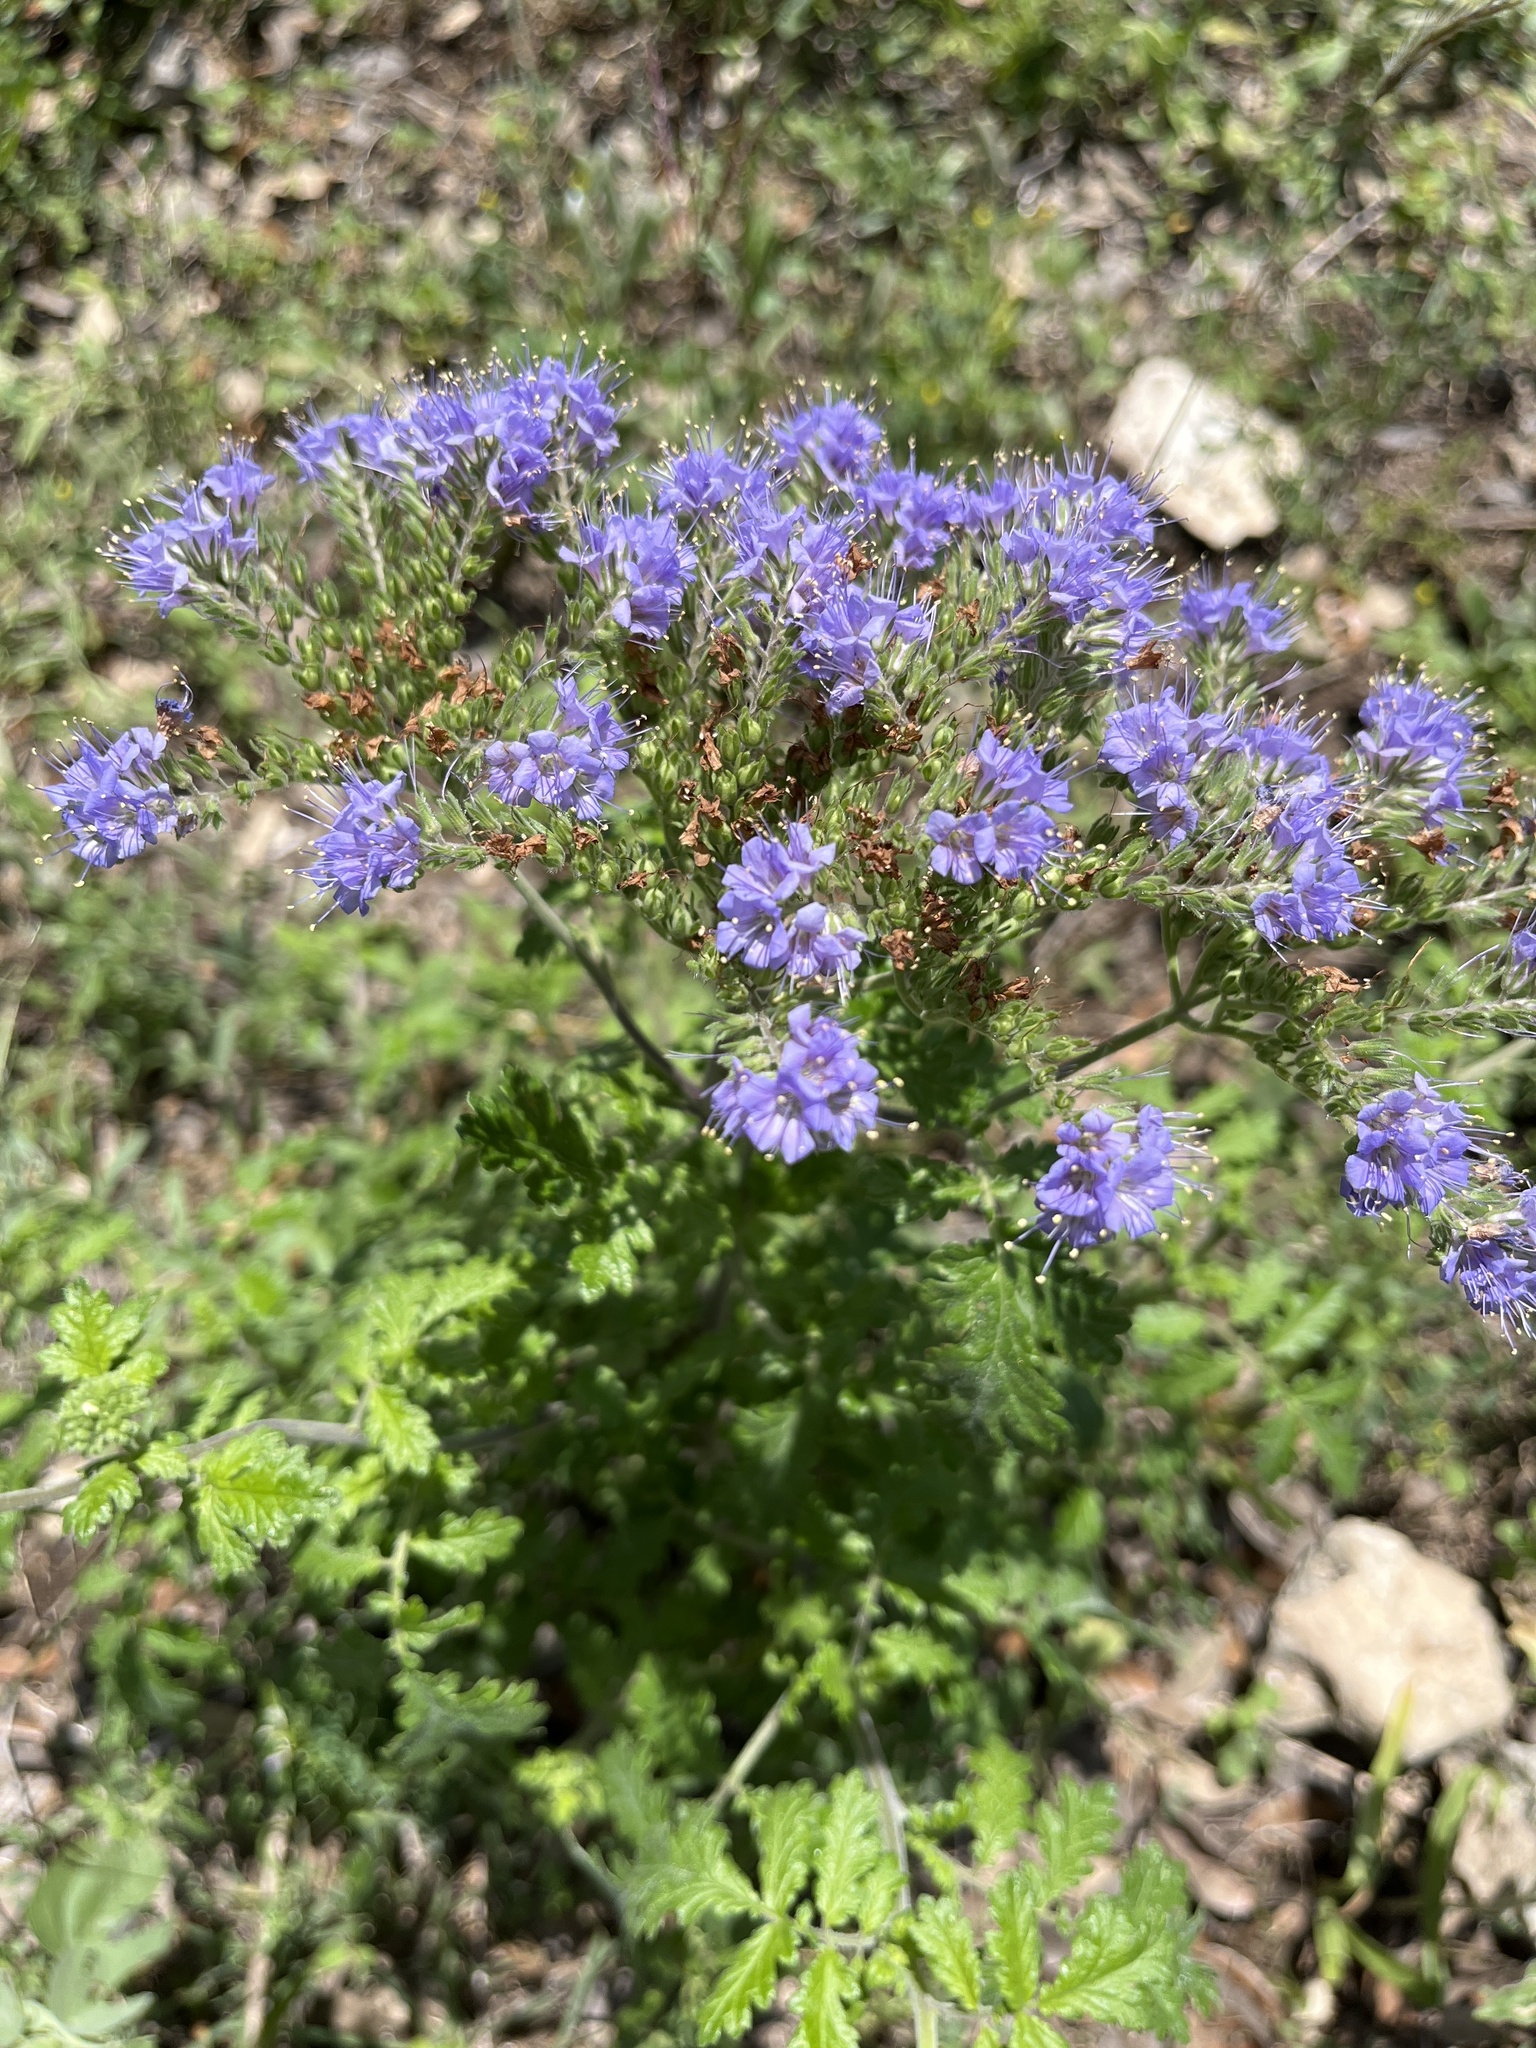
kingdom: Plantae
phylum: Tracheophyta
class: Magnoliopsida
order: Boraginales
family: Hydrophyllaceae
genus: Phacelia
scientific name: Phacelia congesta
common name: Blue curls
